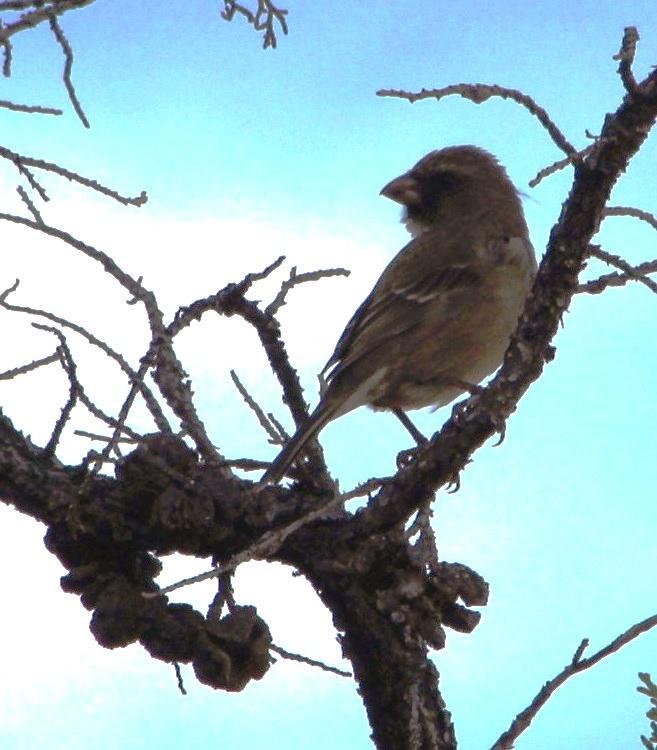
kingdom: Animalia
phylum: Chordata
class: Aves
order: Passeriformes
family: Fringillidae
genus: Crithagra
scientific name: Crithagra leucoptera
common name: Protea canary
